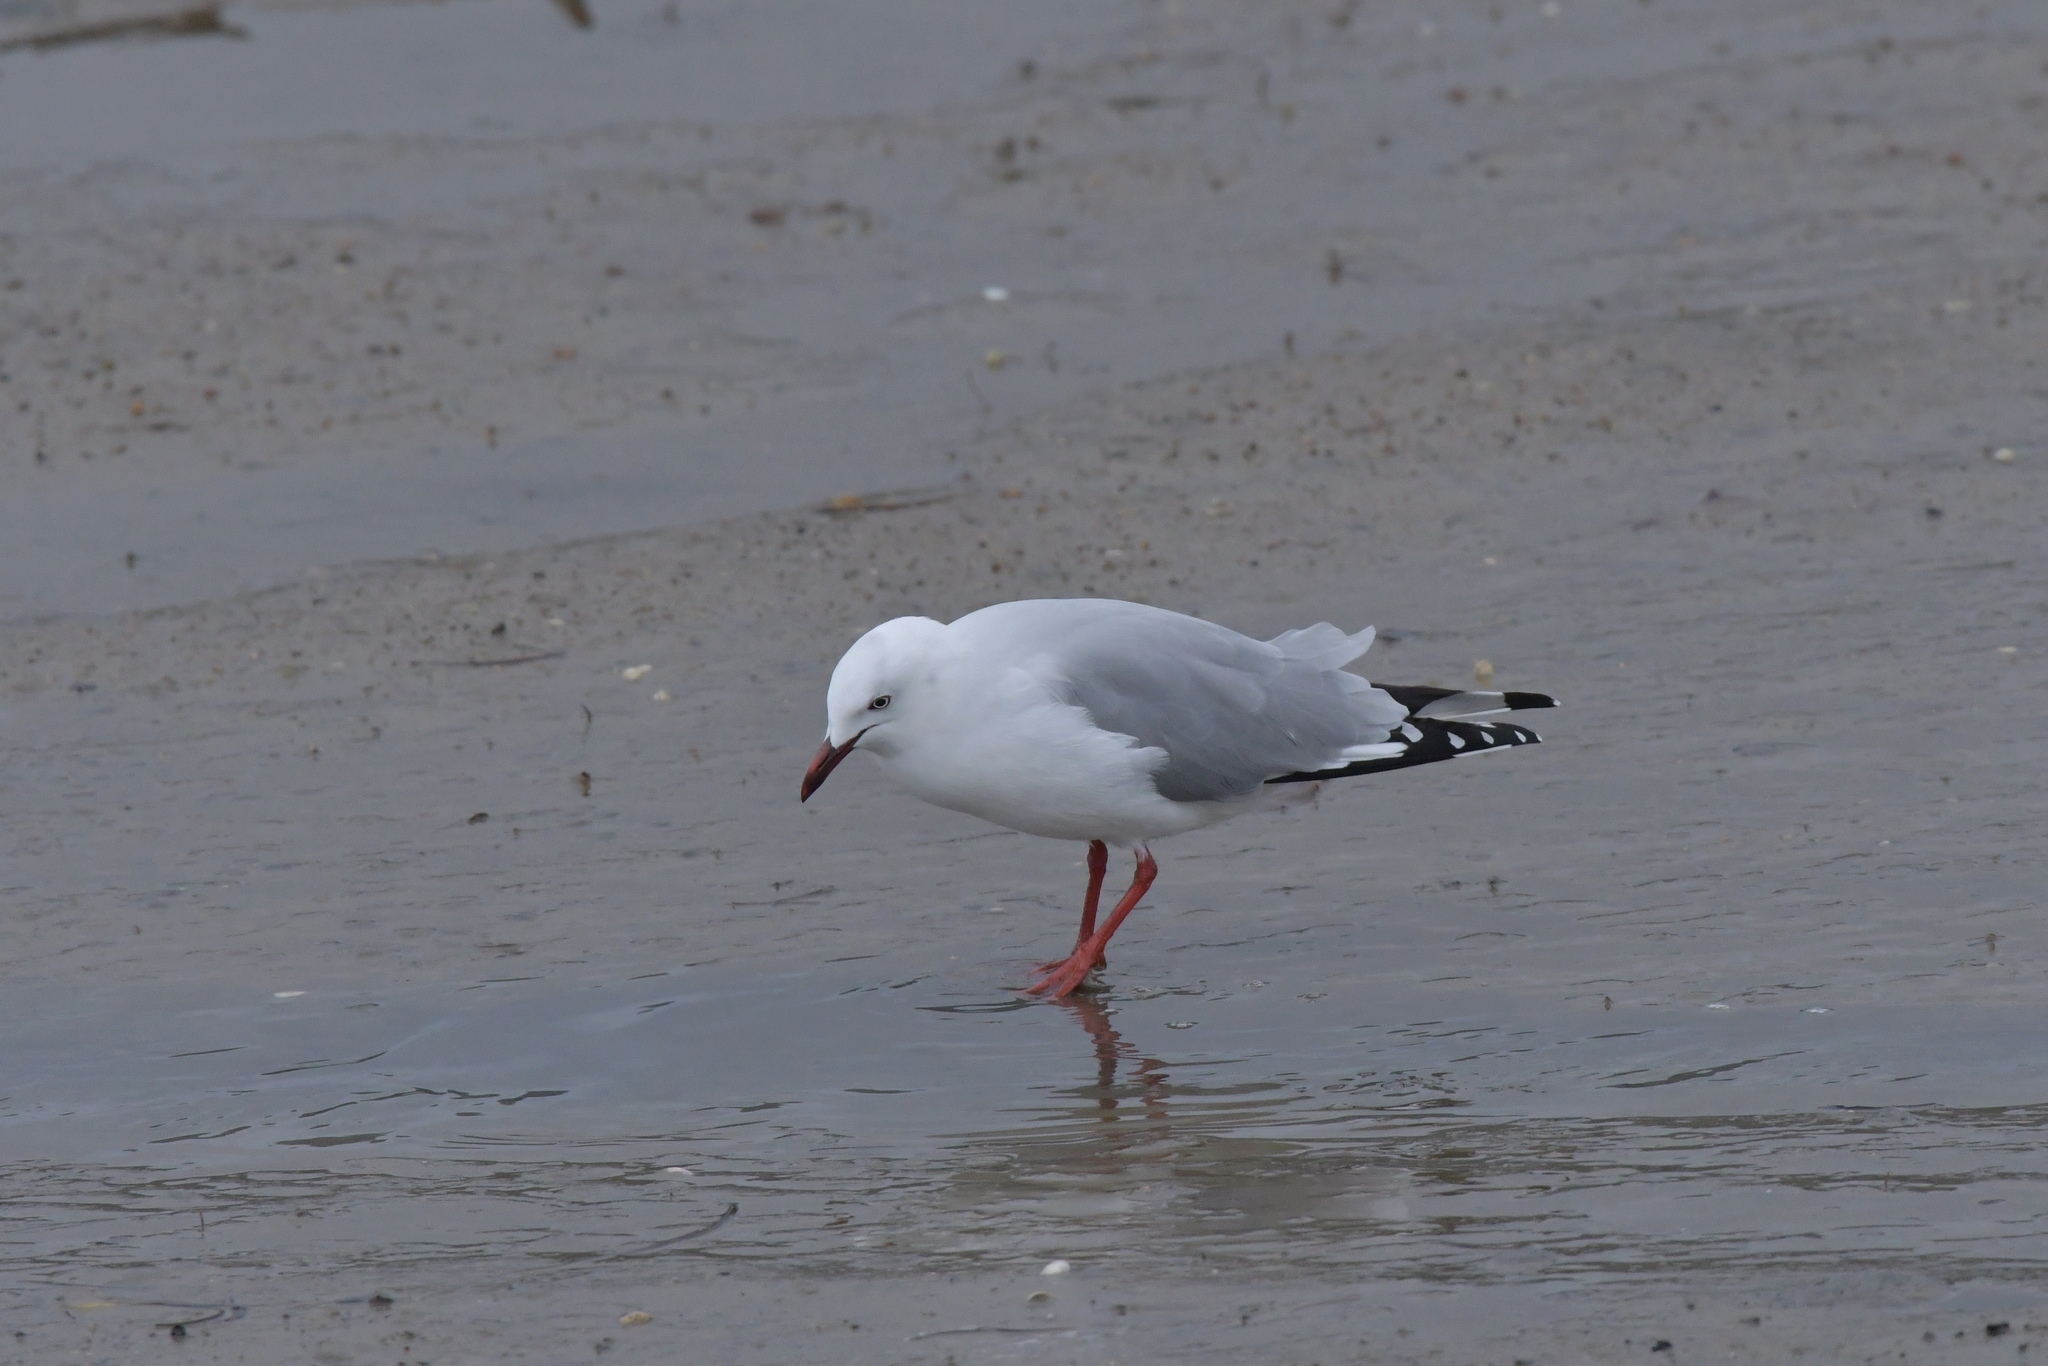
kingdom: Animalia
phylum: Chordata
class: Aves
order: Charadriiformes
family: Laridae
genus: Chroicocephalus
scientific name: Chroicocephalus novaehollandiae
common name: Silver gull
